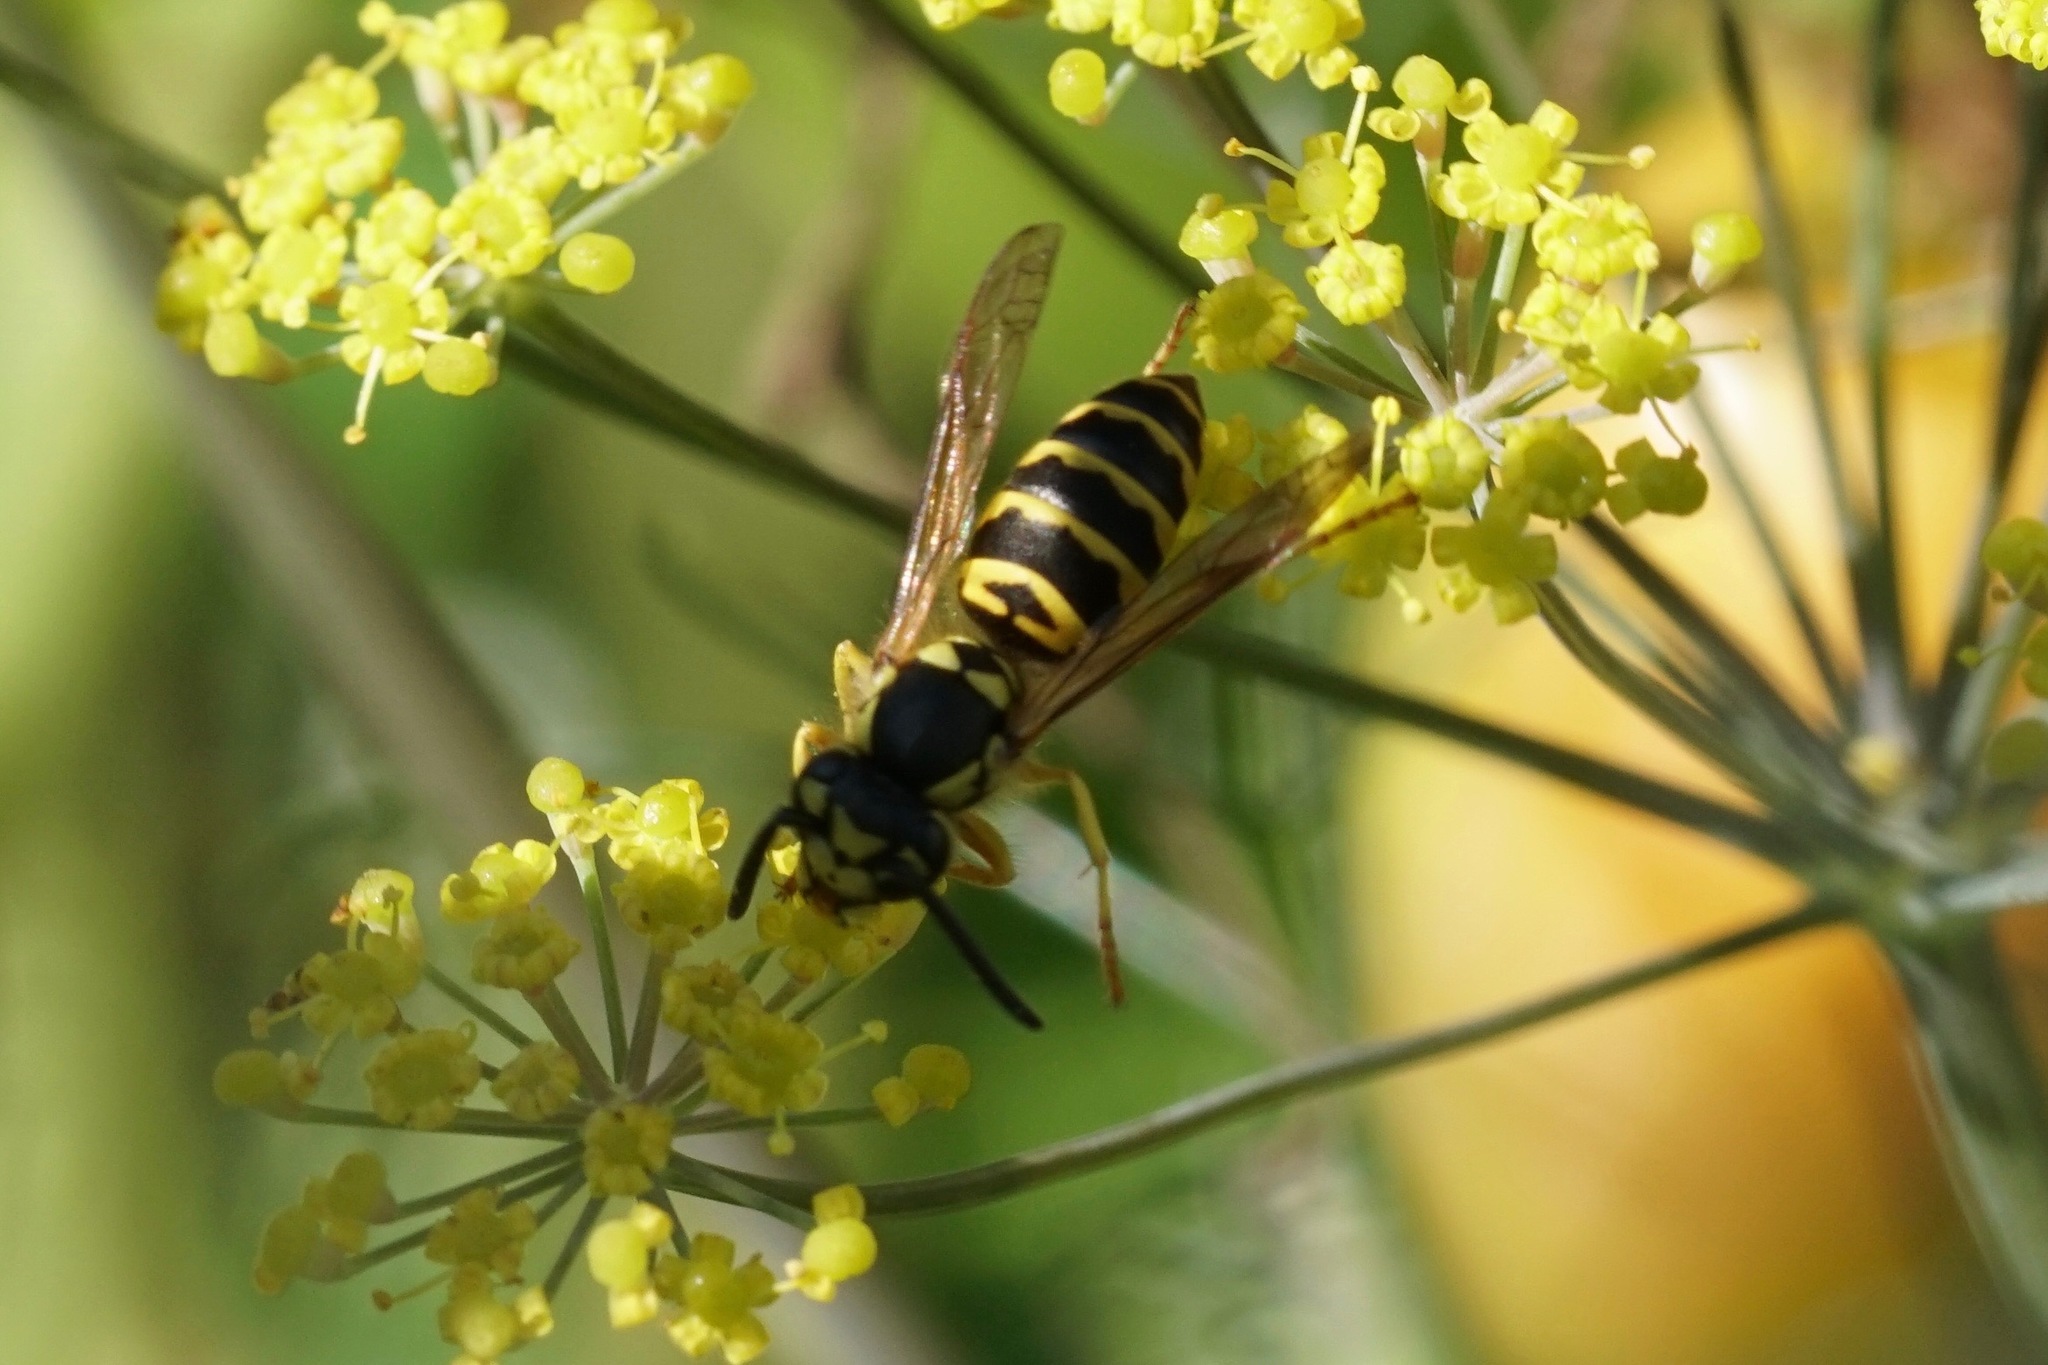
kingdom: Animalia
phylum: Arthropoda
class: Insecta
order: Hymenoptera
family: Vespidae
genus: Vespula
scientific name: Vespula maculifrons
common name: Eastern yellowjacket
